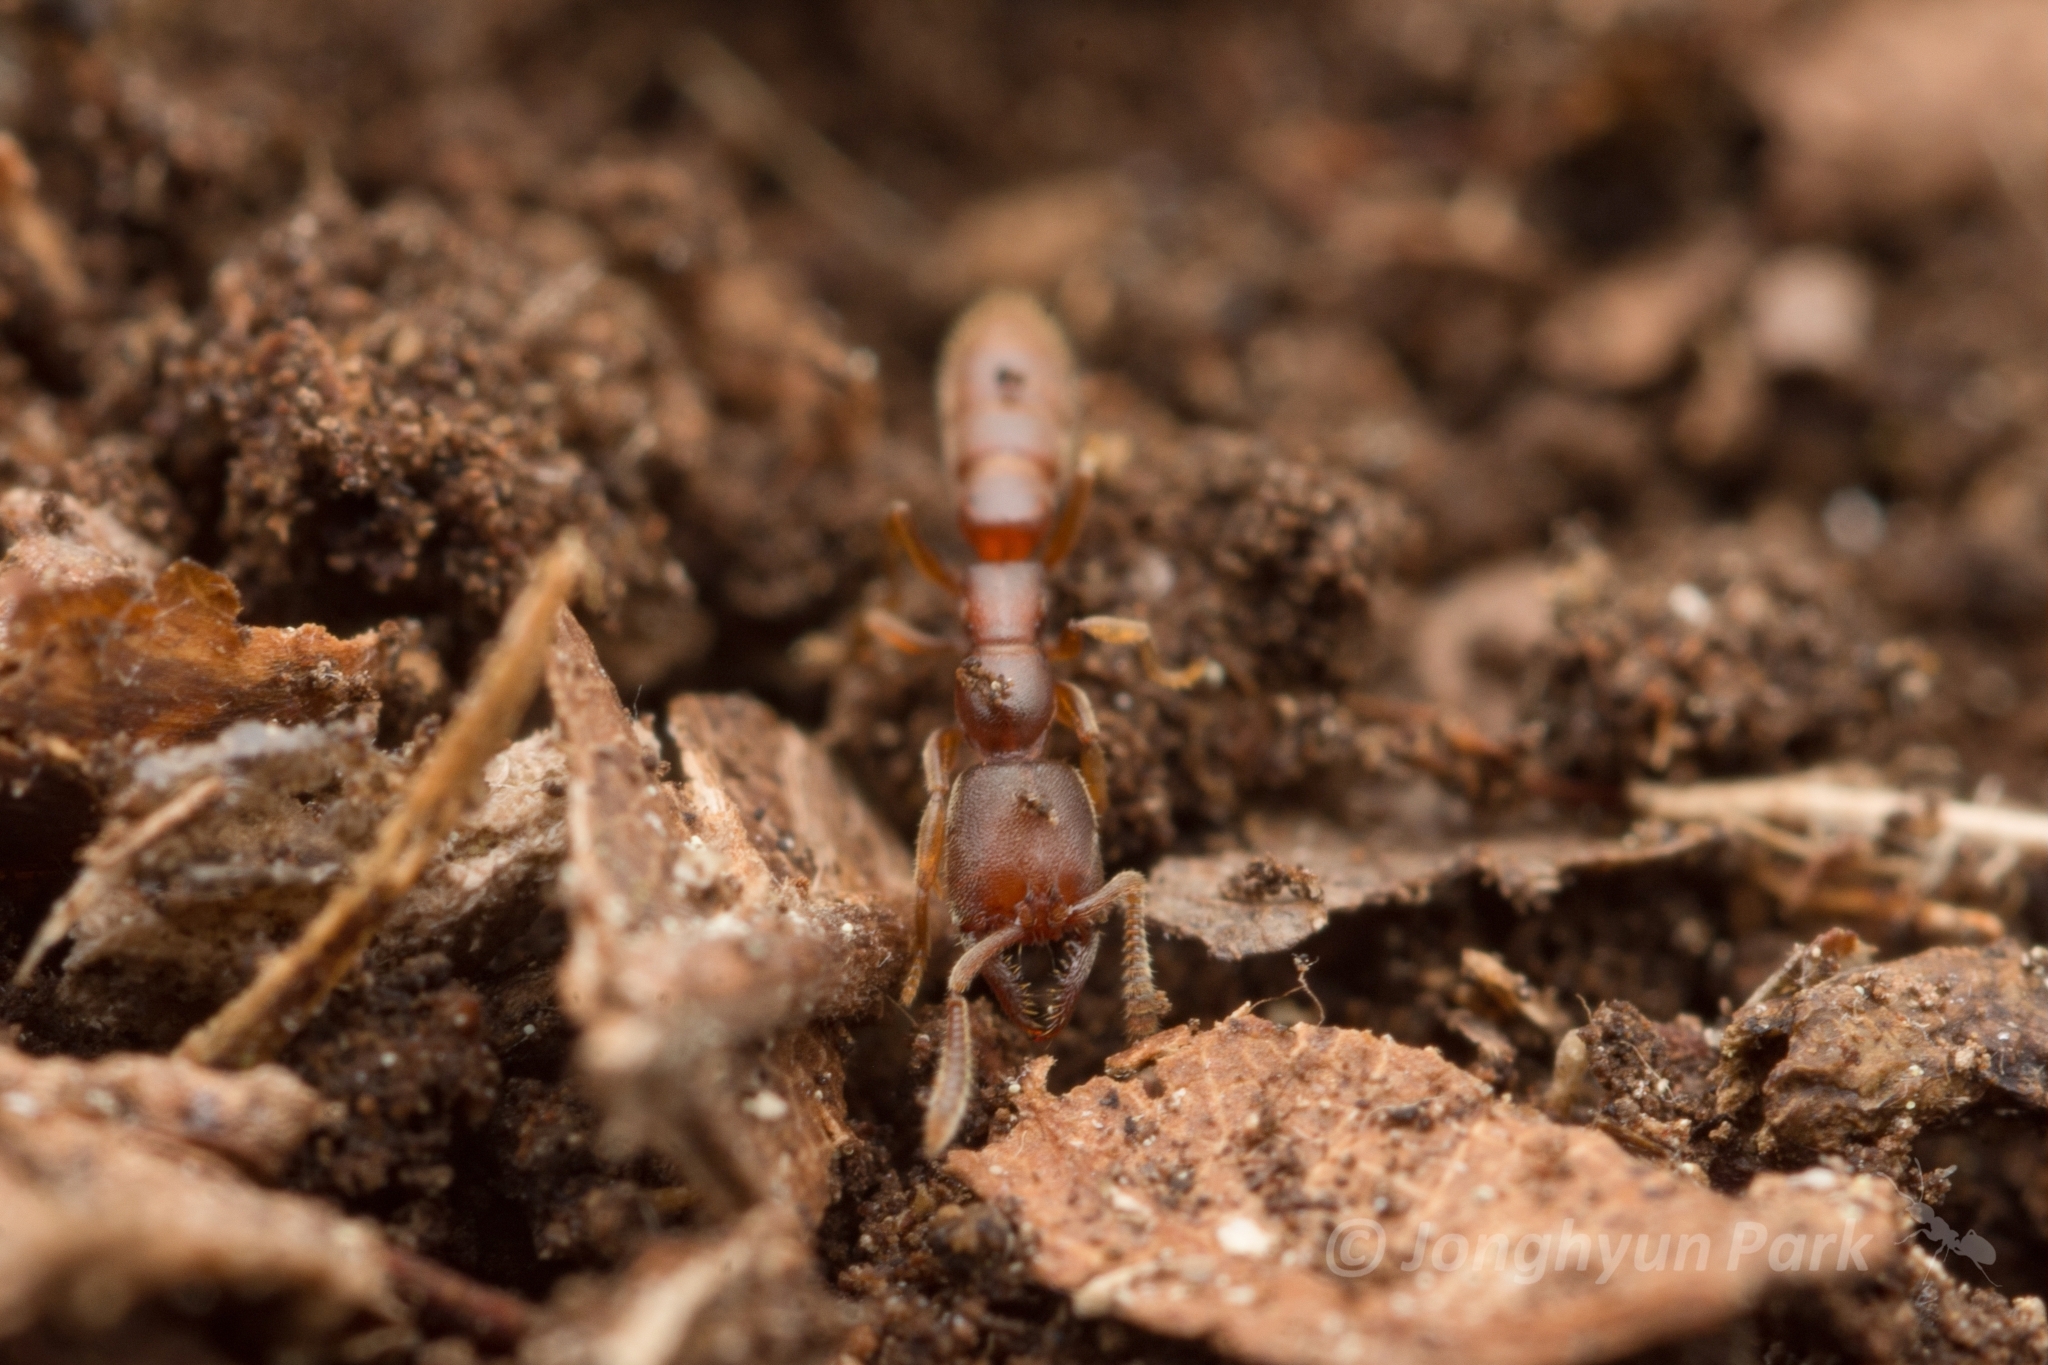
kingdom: Animalia
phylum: Arthropoda
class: Insecta
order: Hymenoptera
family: Formicidae
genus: Stigmatomma
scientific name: Stigmatomma silvestrii
